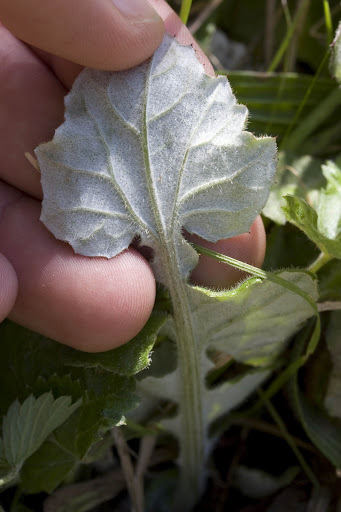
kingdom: Plantae
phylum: Tracheophyta
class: Magnoliopsida
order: Asterales
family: Asteraceae
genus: Arctotheca
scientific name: Arctotheca prostrata
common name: Capeweed
